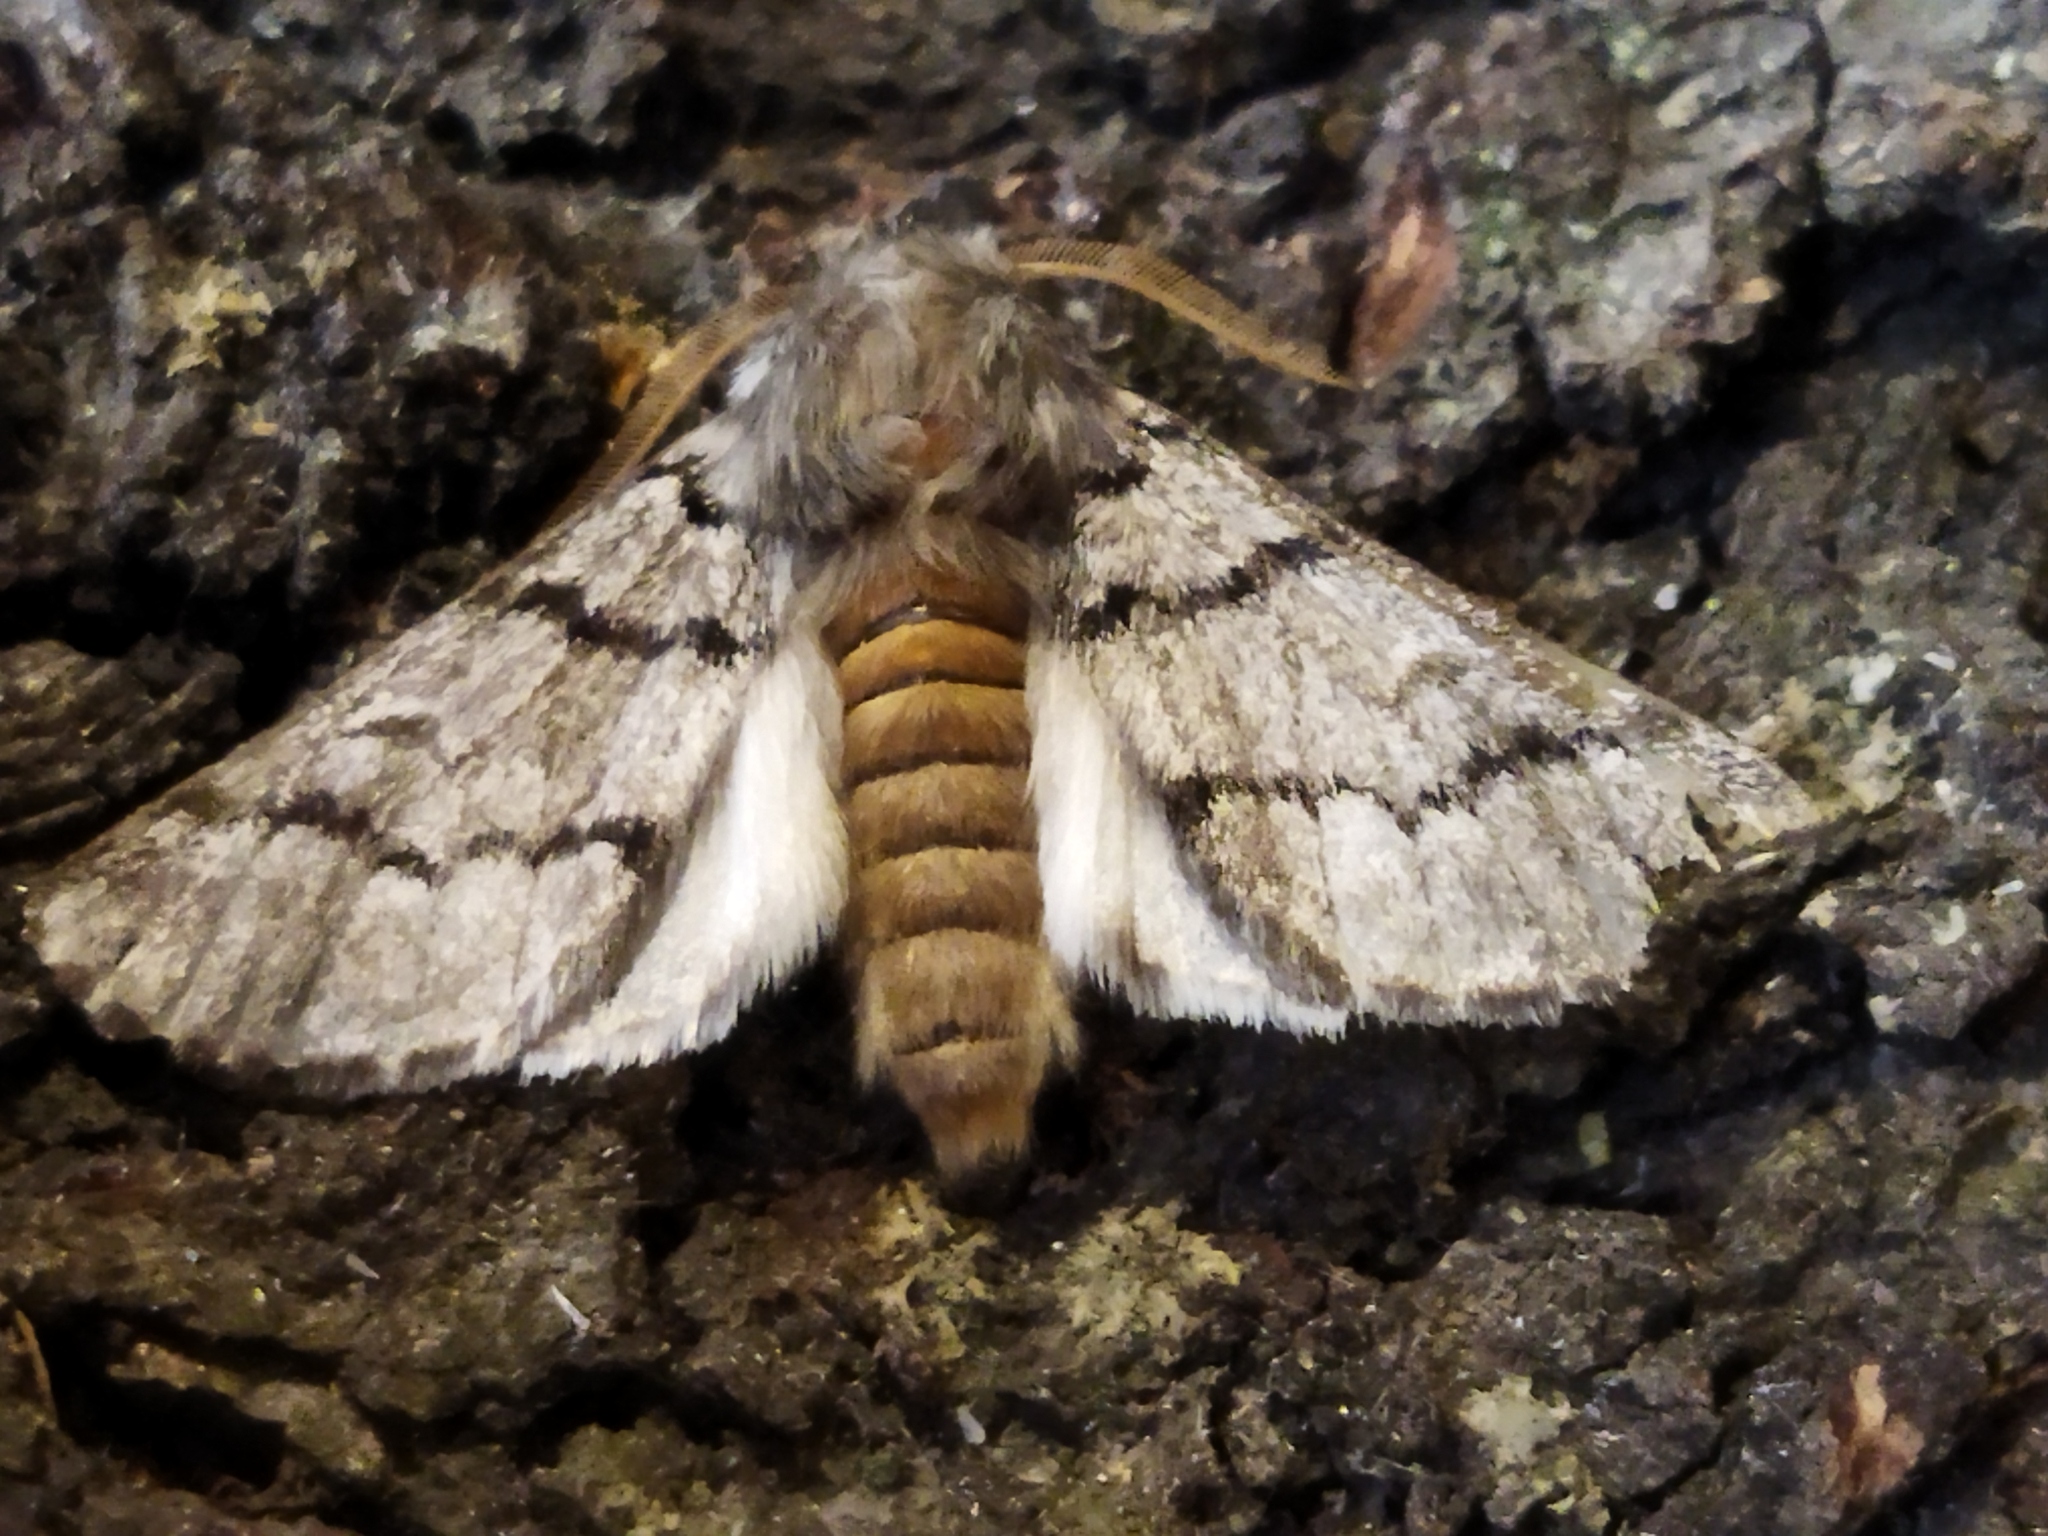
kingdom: Animalia
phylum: Arthropoda
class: Insecta
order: Lepidoptera
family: Notodontidae
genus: Thaumetopoea
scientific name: Thaumetopoea pityocampa
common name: Pine processionary
